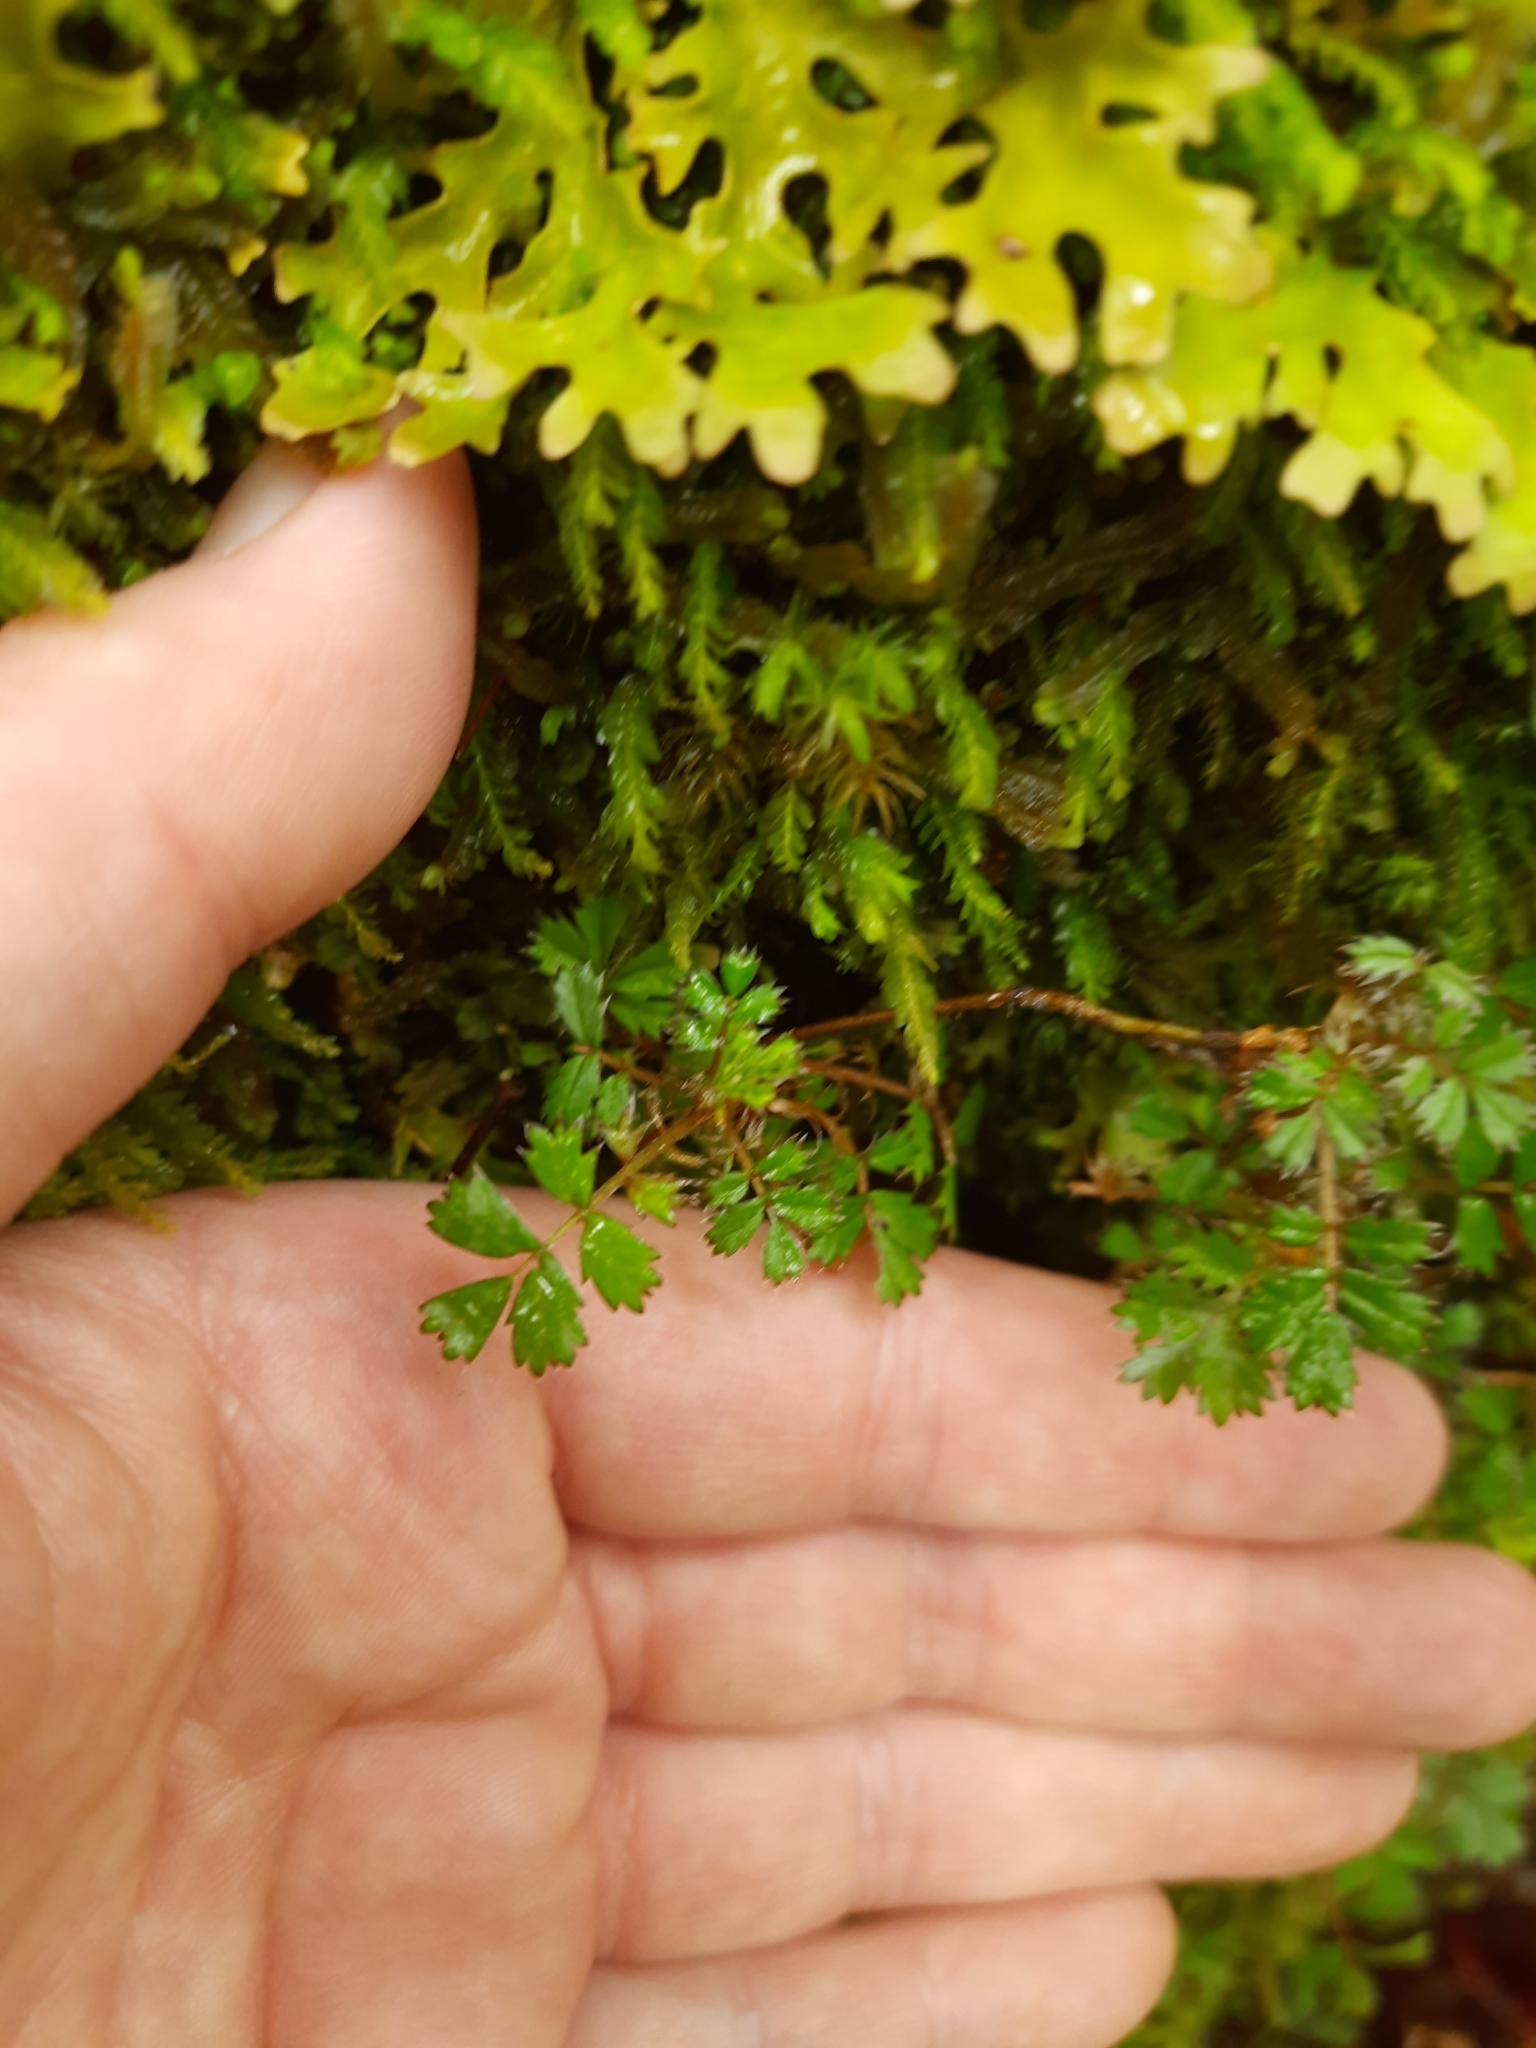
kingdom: Plantae
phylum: Tracheophyta
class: Magnoliopsida
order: Rosales
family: Rosaceae
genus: Acaena
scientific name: Acaena anserinifolia
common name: Bronze pirri-pirri-bur
